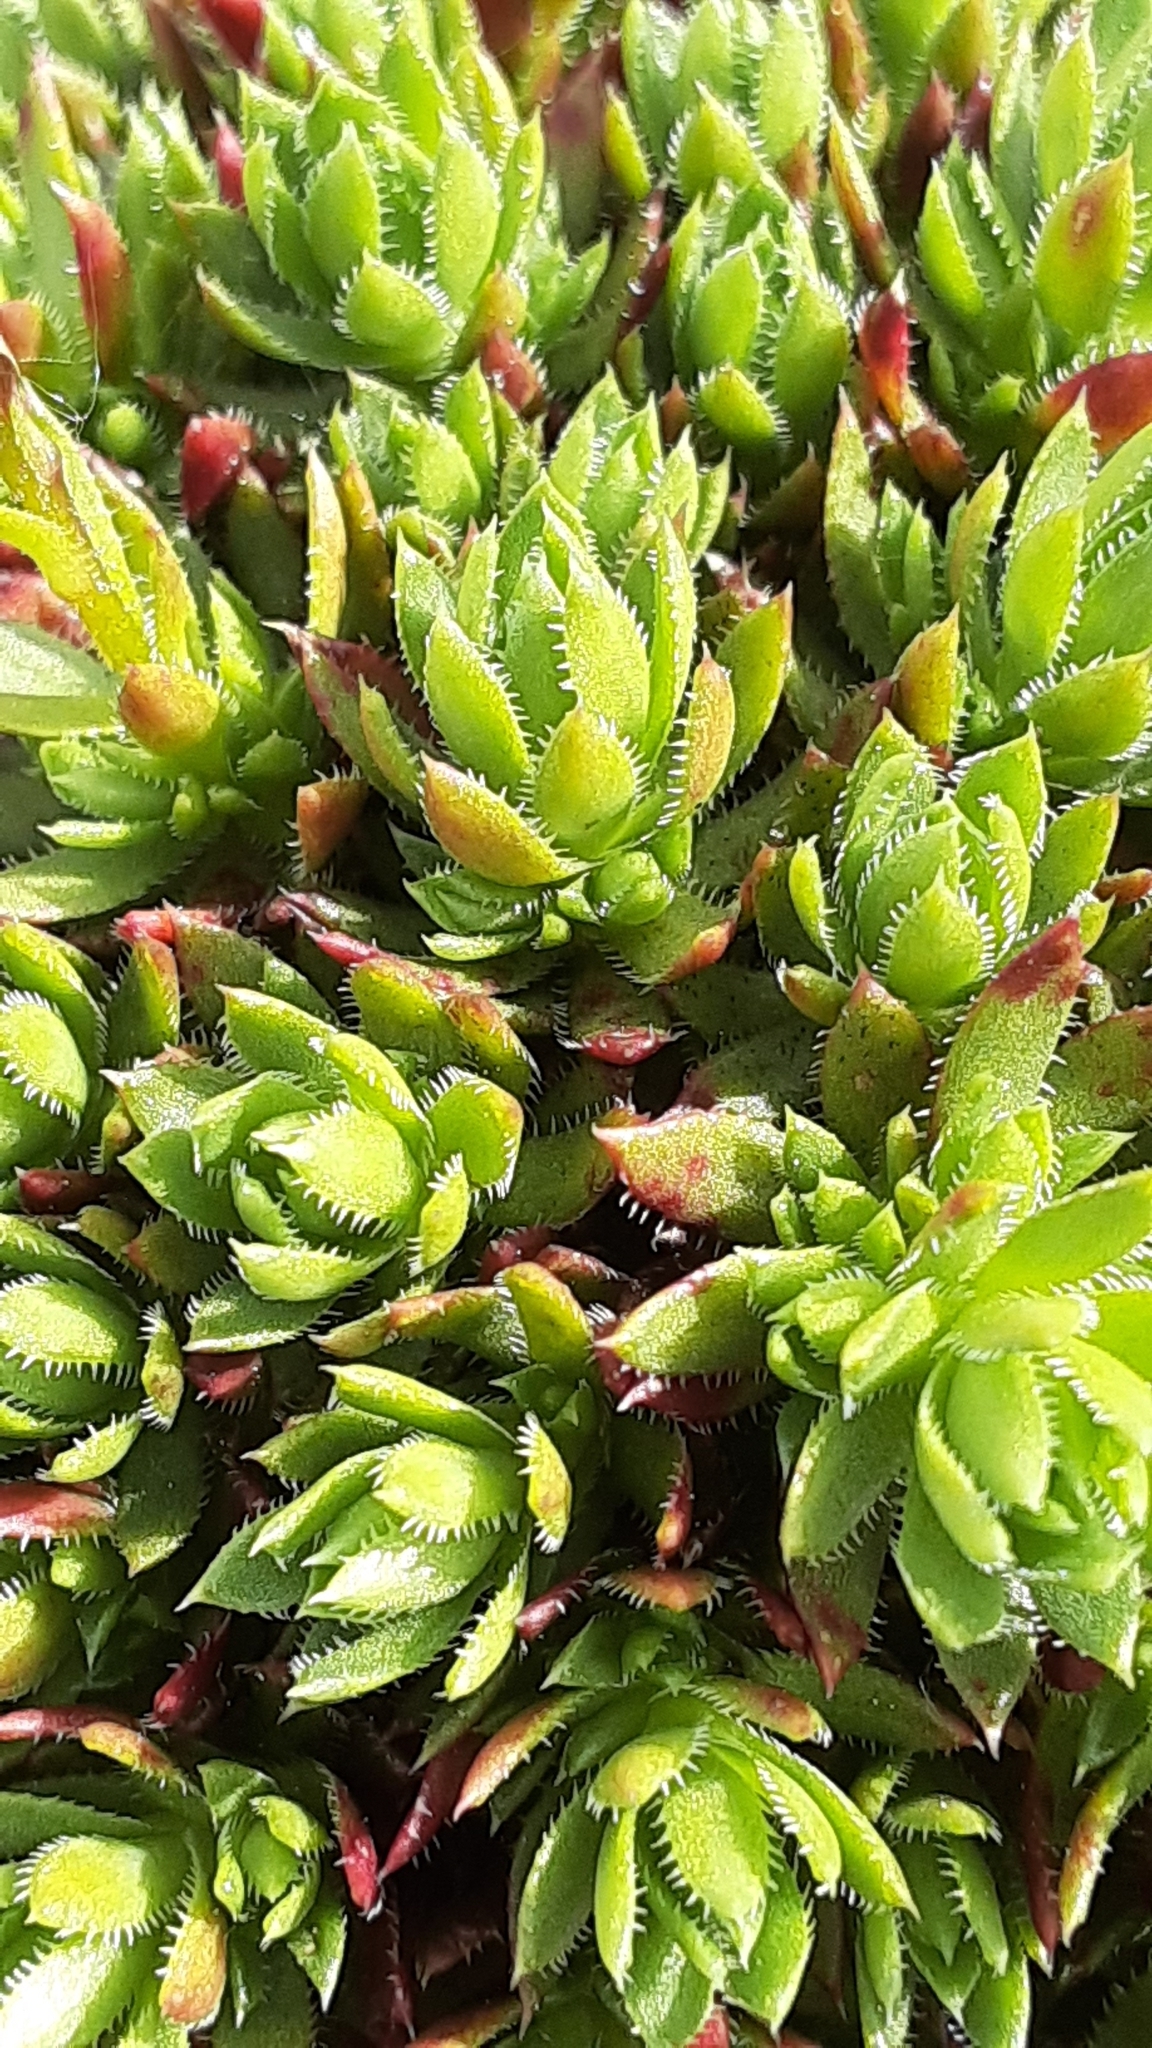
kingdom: Plantae
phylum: Tracheophyta
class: Magnoliopsida
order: Saxifragales
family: Saxifragaceae
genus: Saxifraga
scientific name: Saxifraga bronchialis
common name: Matted saxifrage
